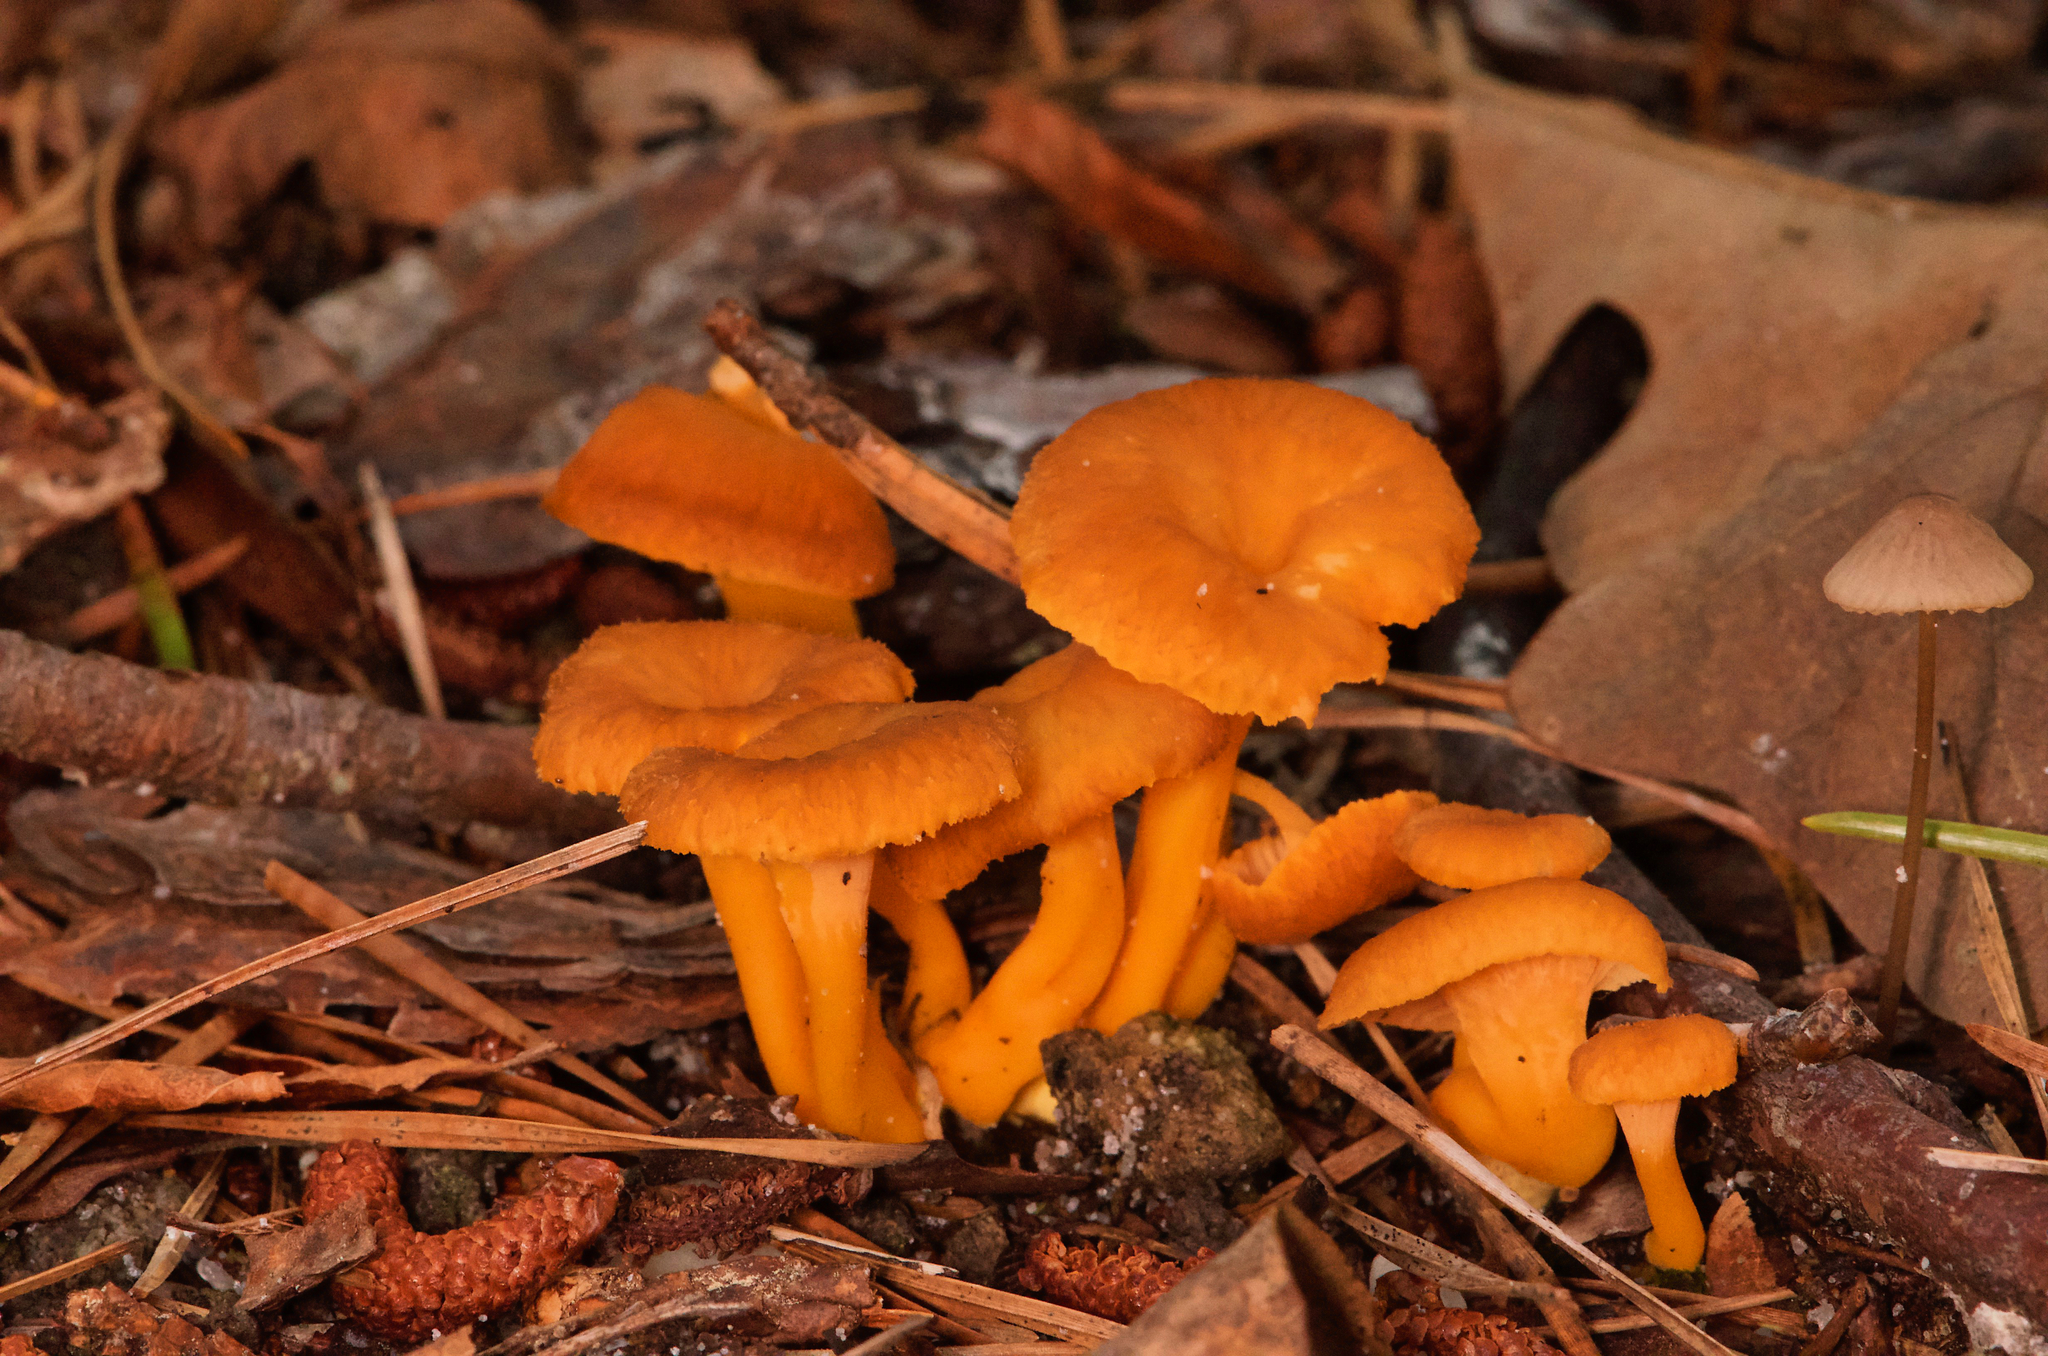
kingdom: Fungi
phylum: Basidiomycota
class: Agaricomycetes
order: Cantharellales
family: Hydnaceae
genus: Craterellus
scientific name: Craterellus ignicolor
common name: Flame chanterelle
